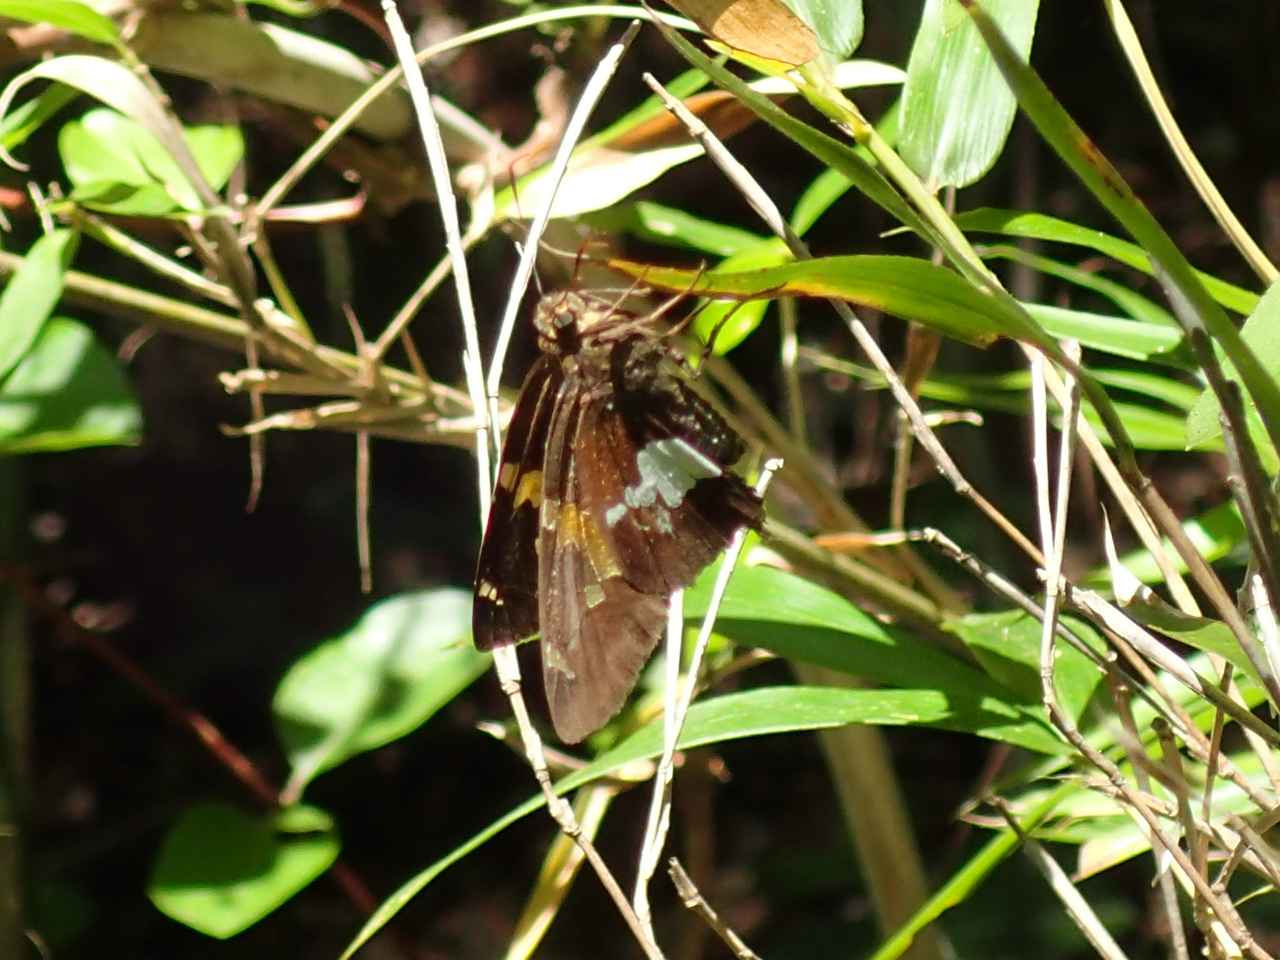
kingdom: Animalia
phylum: Arthropoda
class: Insecta
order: Lepidoptera
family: Hesperiidae
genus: Epargyreus
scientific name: Epargyreus clarus
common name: Silver-spotted skipper
